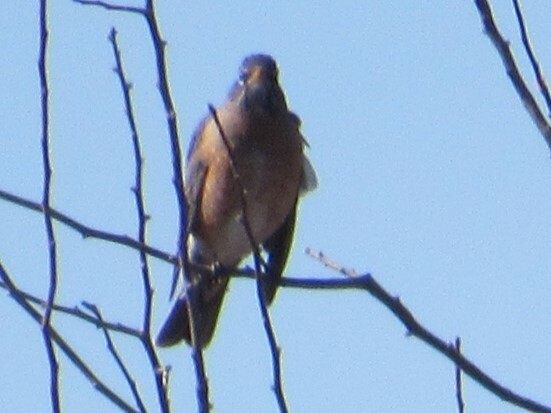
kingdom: Animalia
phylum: Chordata
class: Aves
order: Passeriformes
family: Turdidae
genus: Turdus
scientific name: Turdus migratorius
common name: American robin
